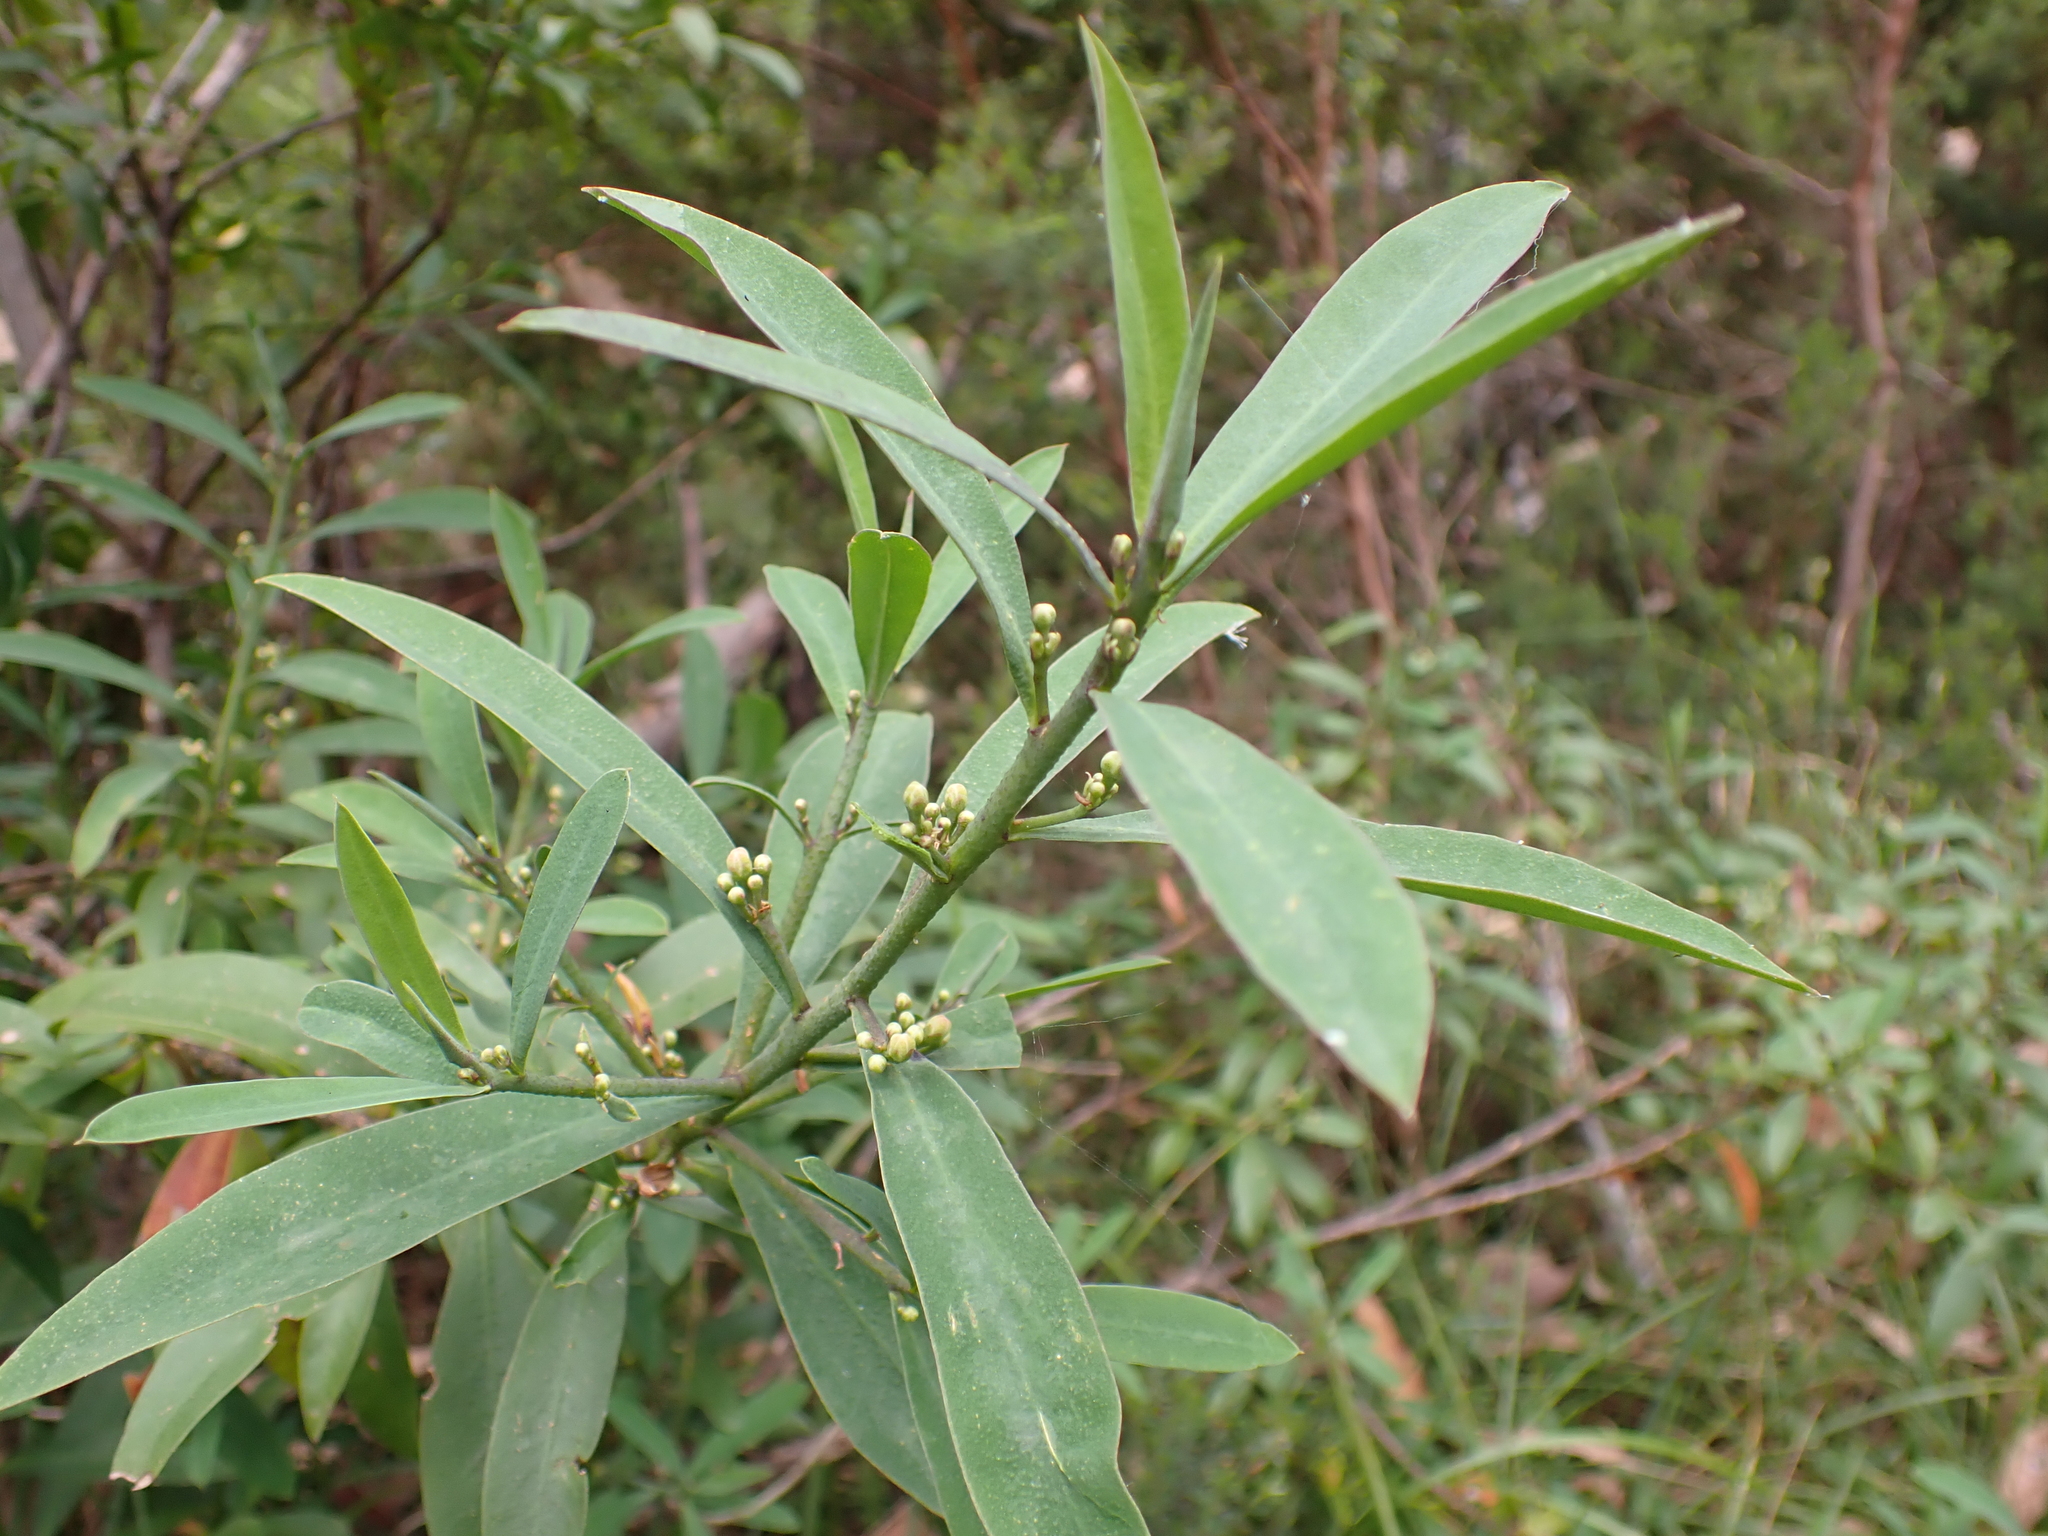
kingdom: Plantae
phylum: Tracheophyta
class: Magnoliopsida
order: Sapindales
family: Rutaceae
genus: Philotheca
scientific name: Philotheca myoporoides
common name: Longleaf waxflower
